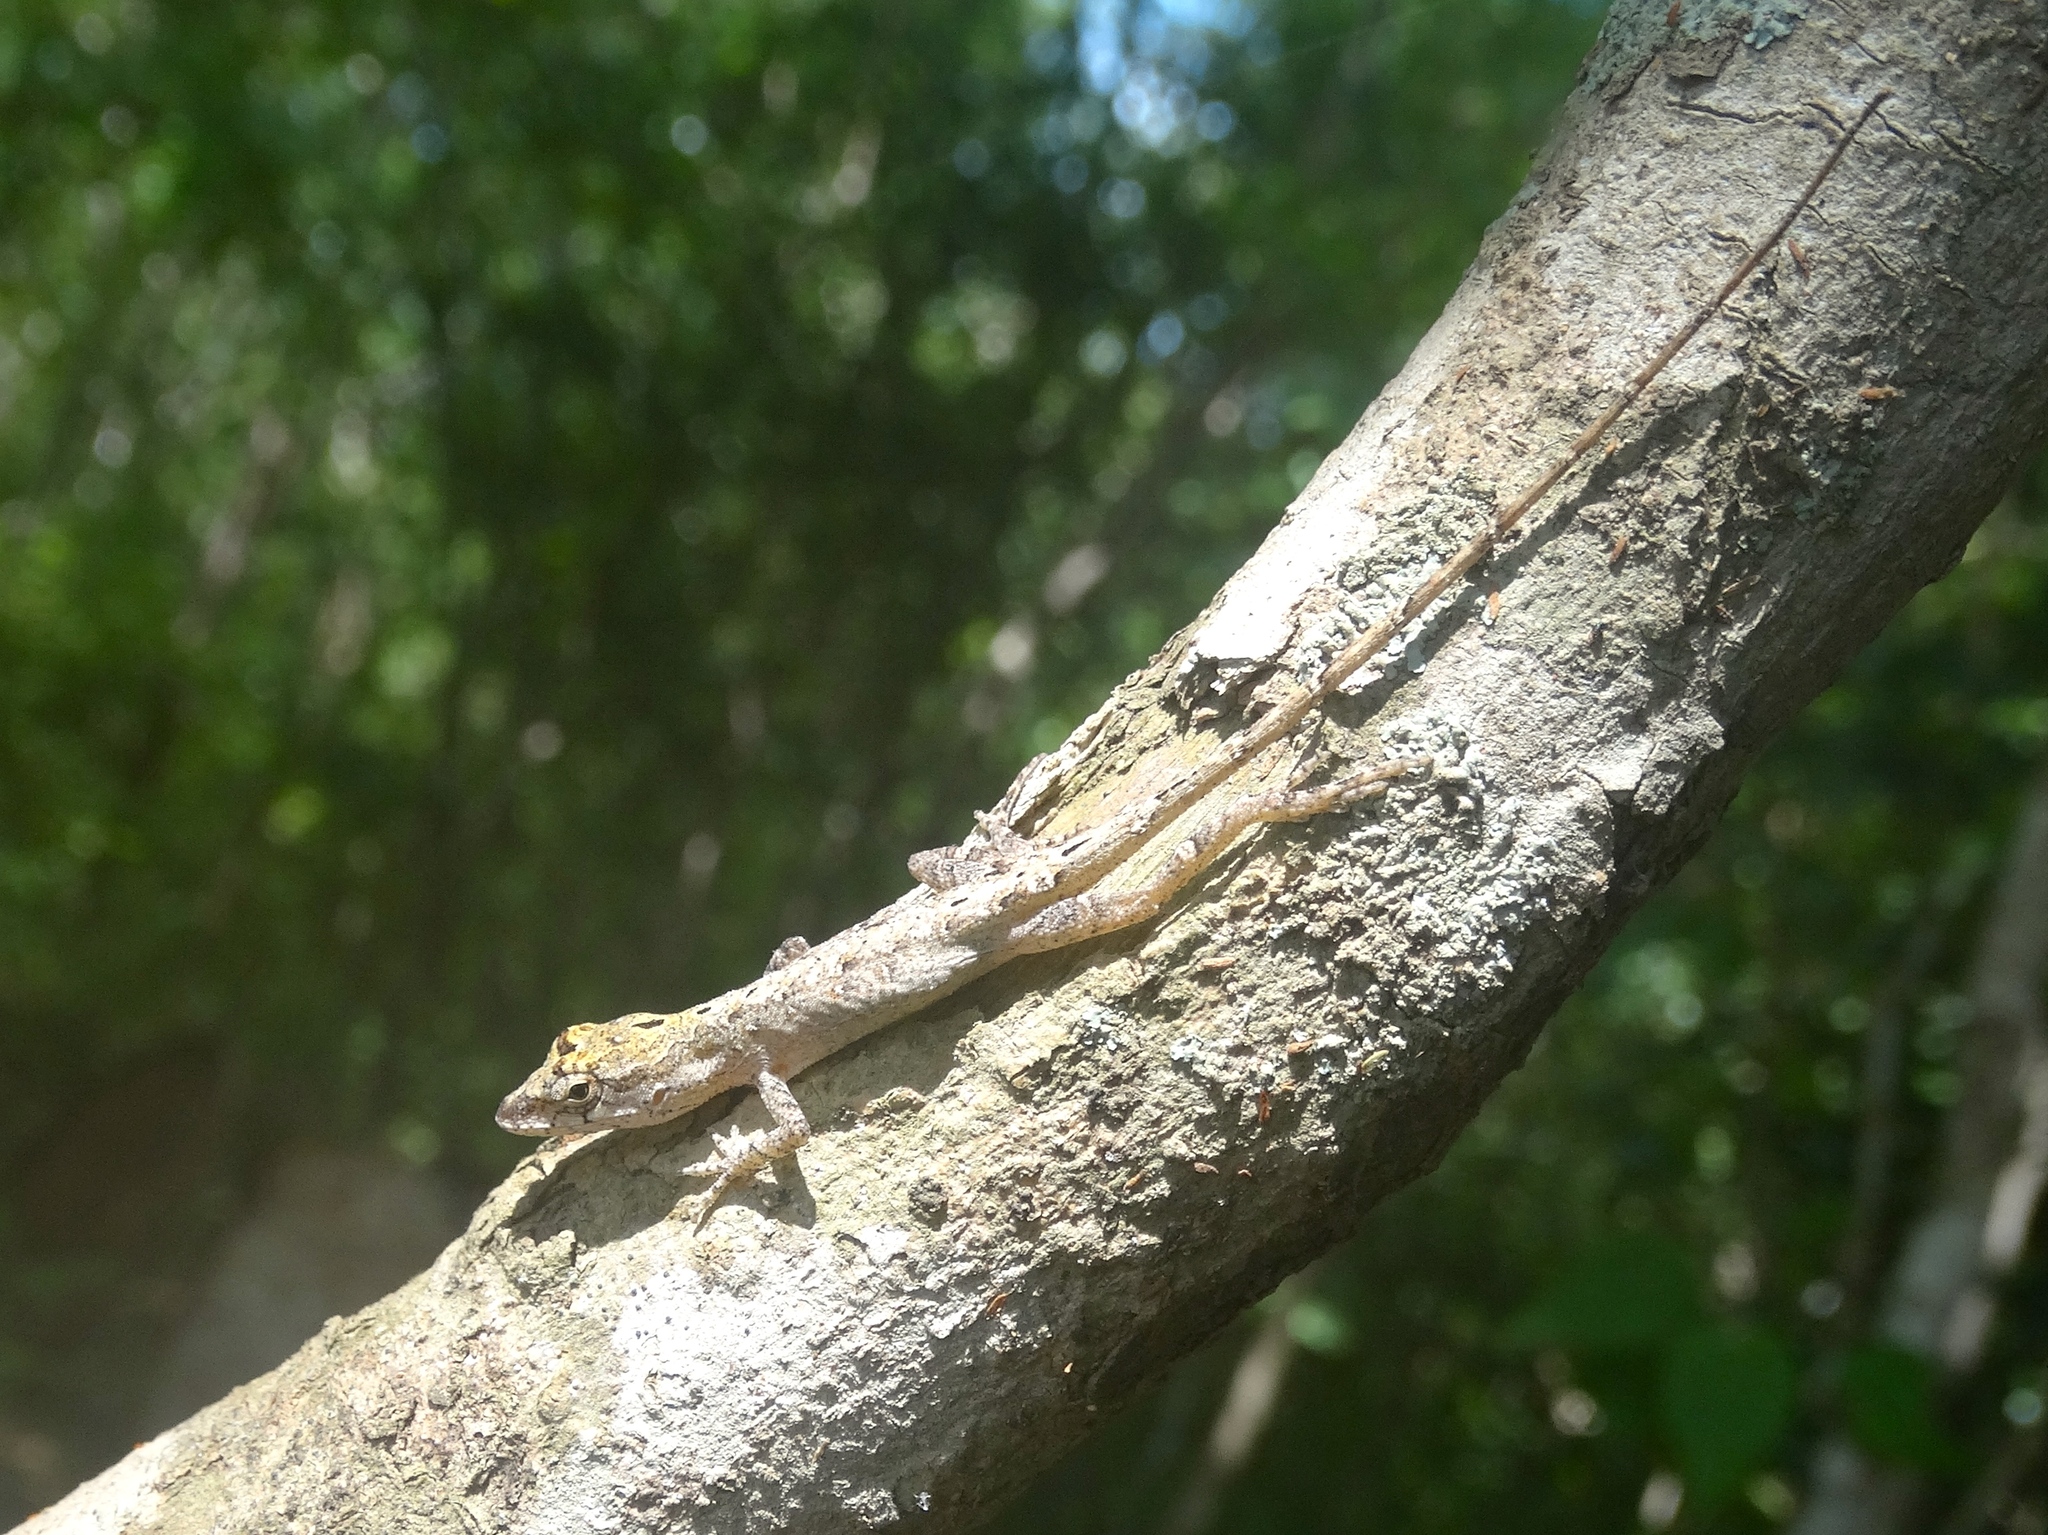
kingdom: Animalia
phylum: Chordata
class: Squamata
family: Dactyloidae
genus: Anolis
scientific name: Anolis nebulosus
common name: Clouded anole
